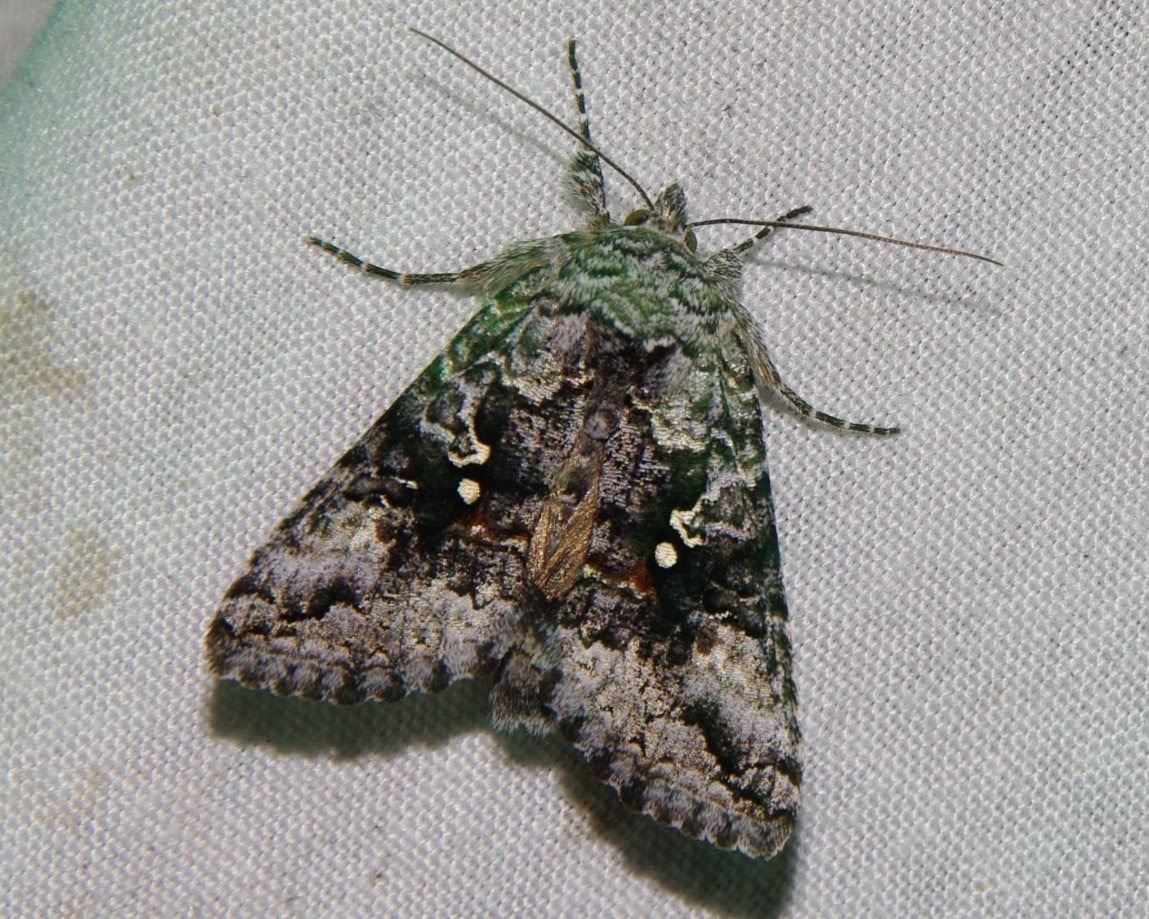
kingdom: Animalia
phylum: Arthropoda
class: Insecta
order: Lepidoptera
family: Noctuidae
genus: Syngrapha
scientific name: Syngrapha octoscripta
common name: Dusky silver y moth
